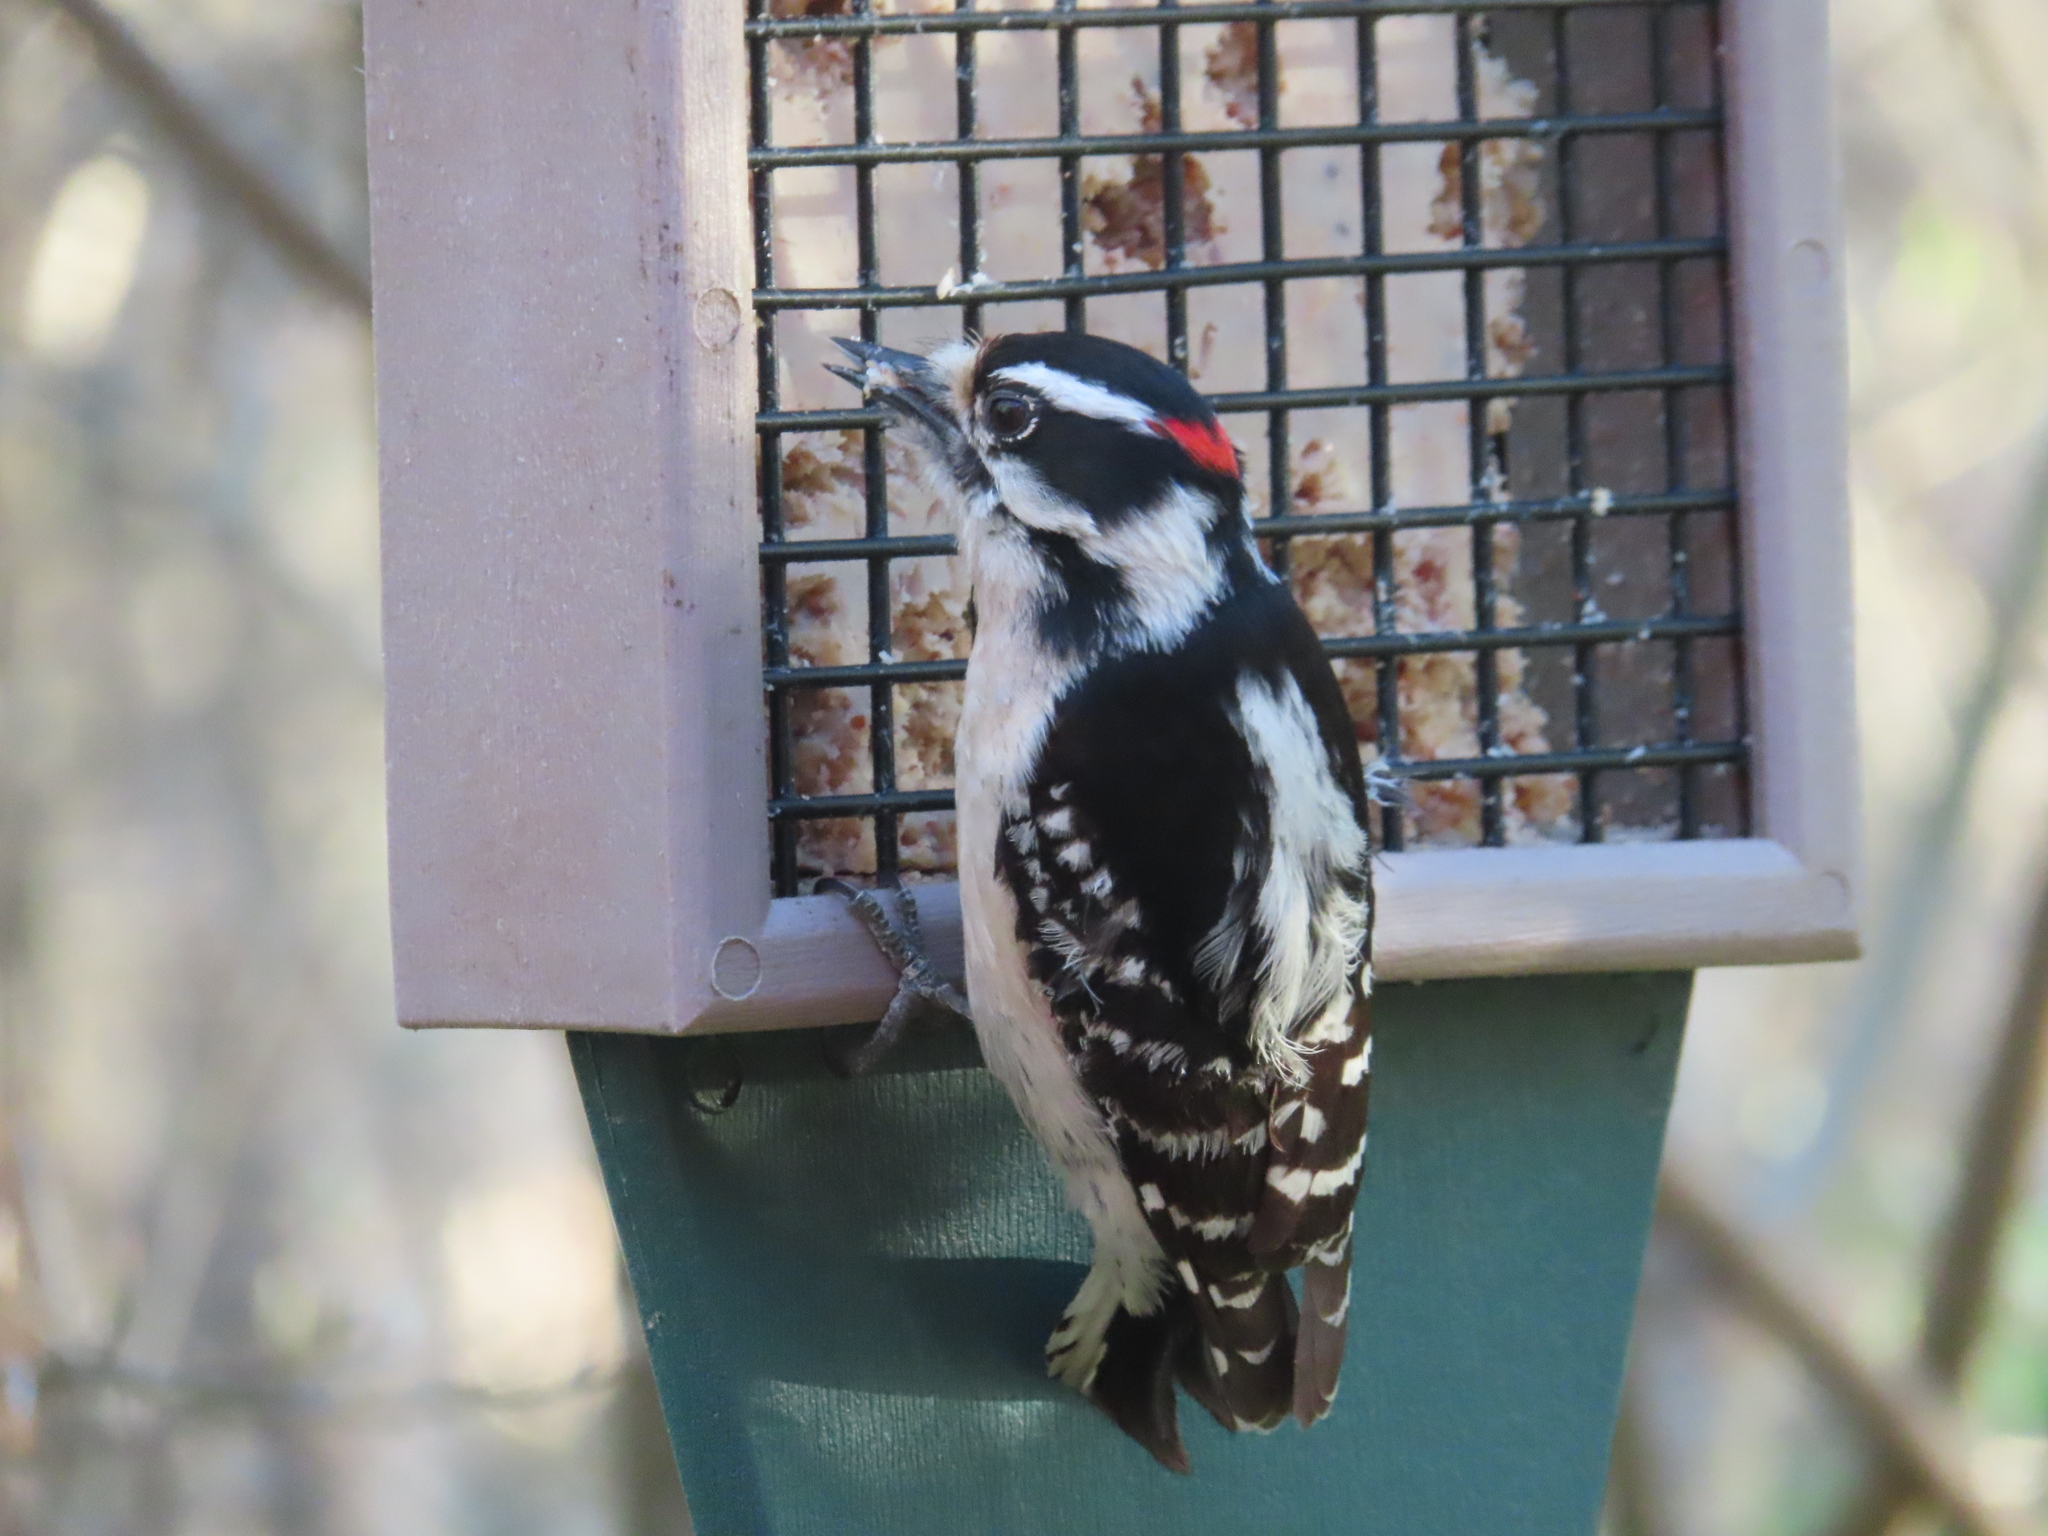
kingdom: Animalia
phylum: Chordata
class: Aves
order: Piciformes
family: Picidae
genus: Dryobates
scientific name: Dryobates pubescens
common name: Downy woodpecker
